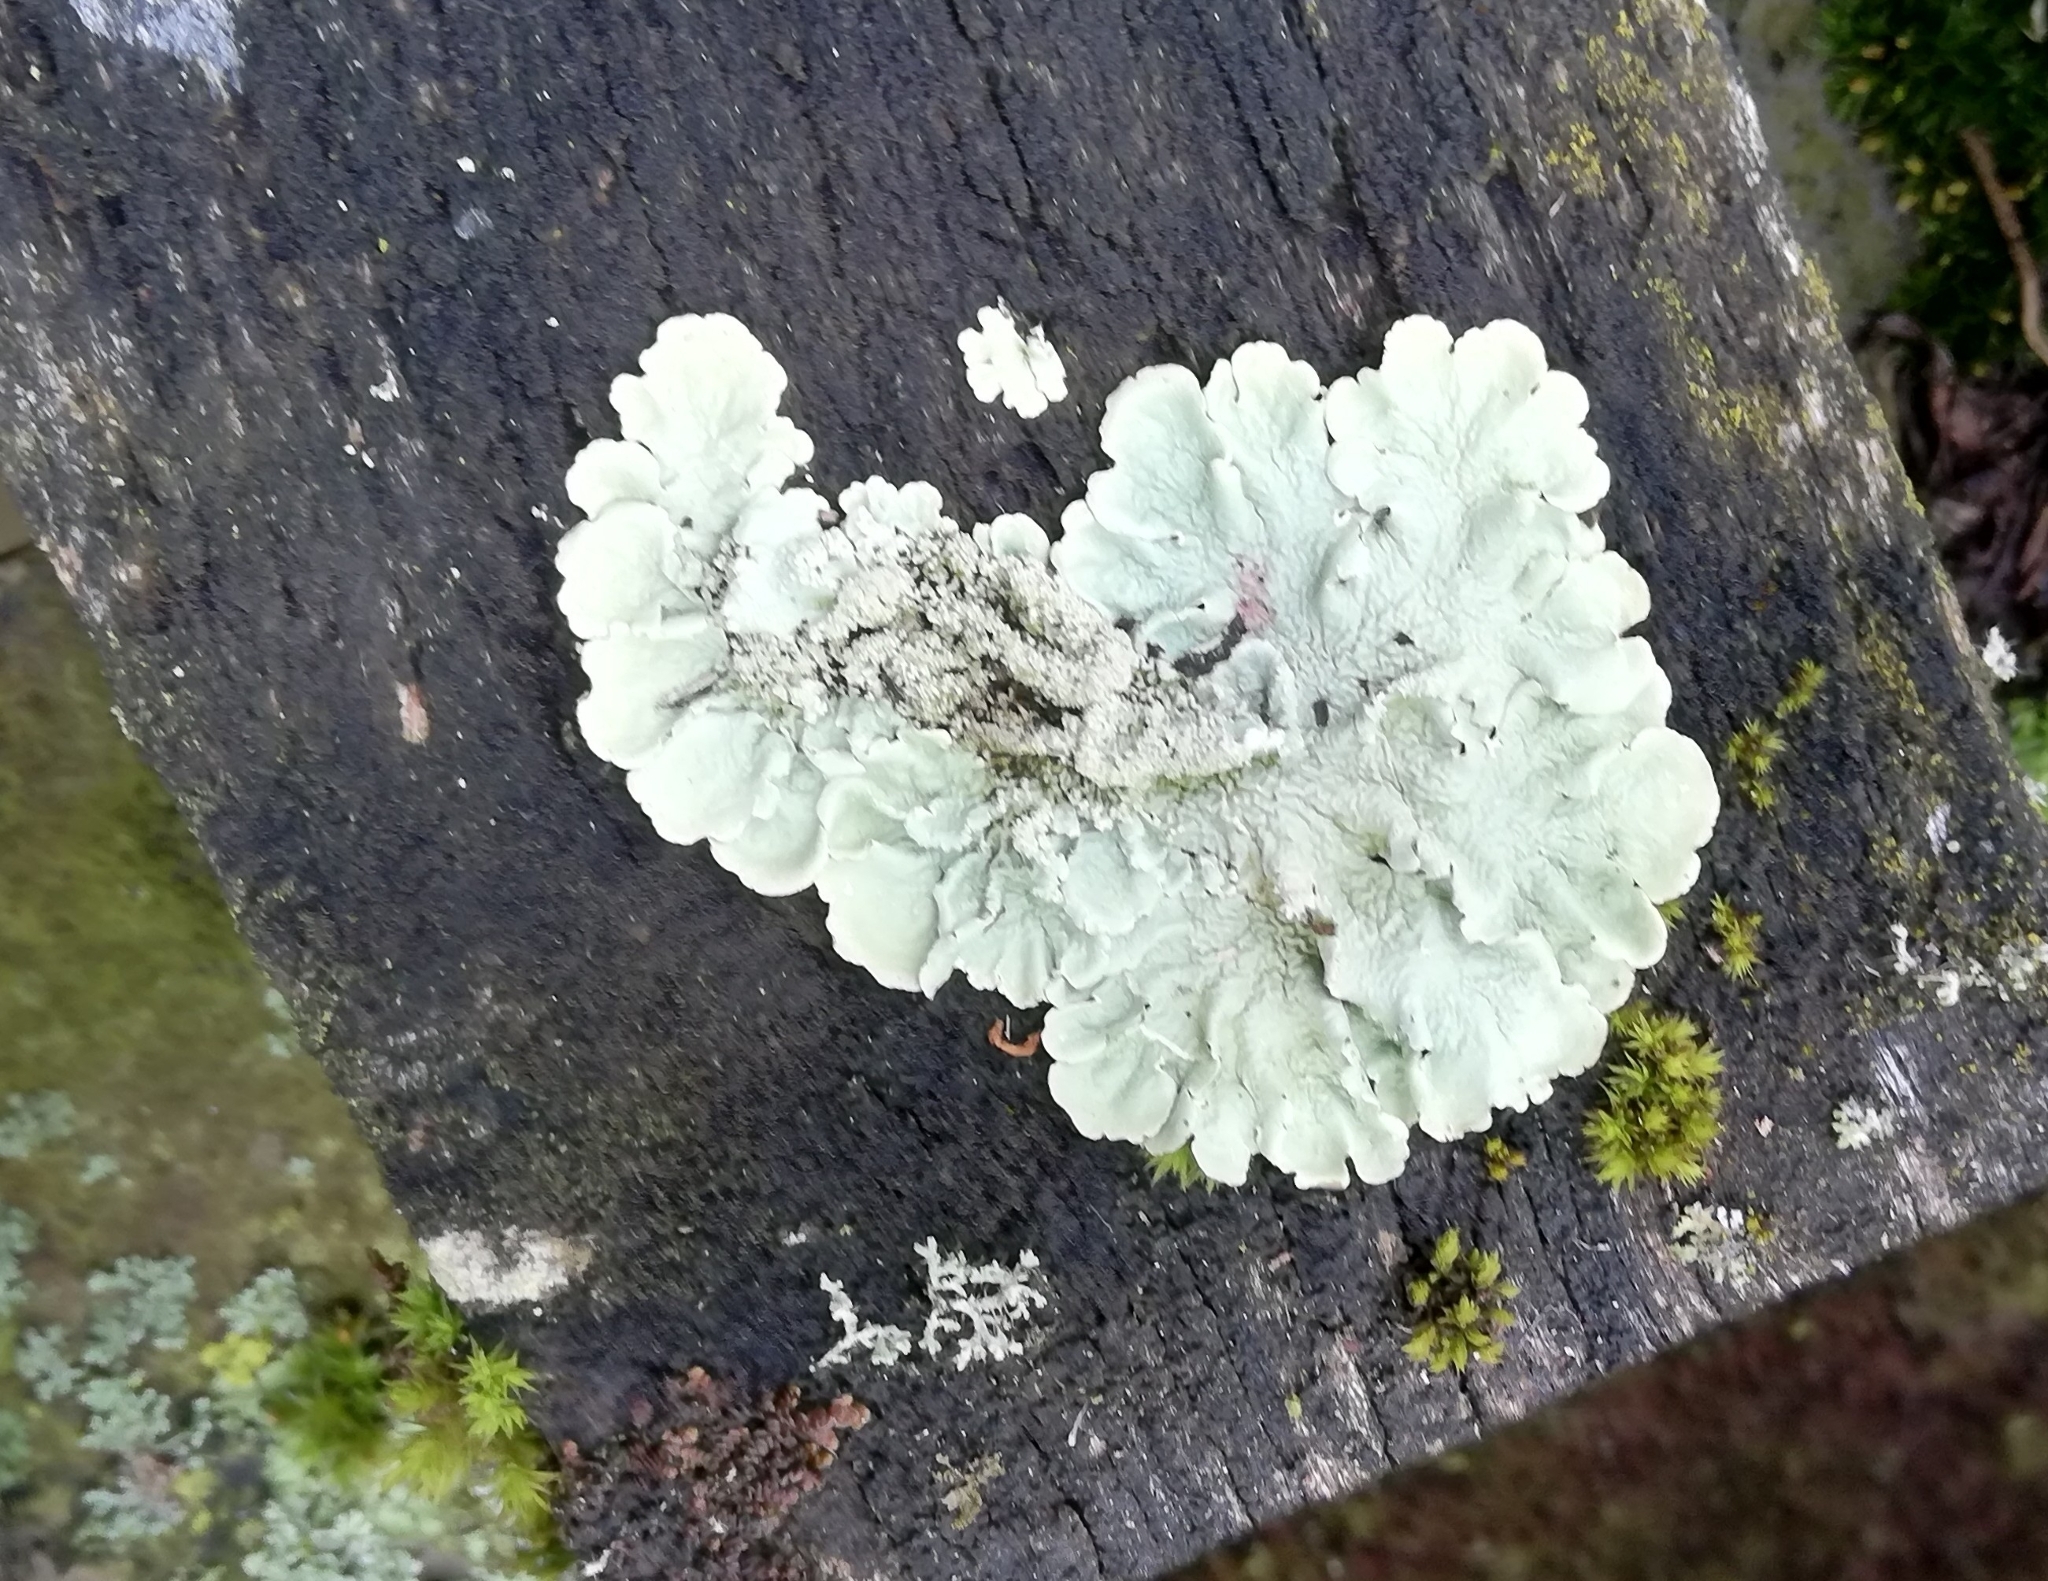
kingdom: Fungi
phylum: Ascomycota
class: Lecanoromycetes
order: Lecanorales
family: Parmeliaceae
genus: Flavoparmelia
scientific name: Flavoparmelia caperata
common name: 40-mile per hour lichen
